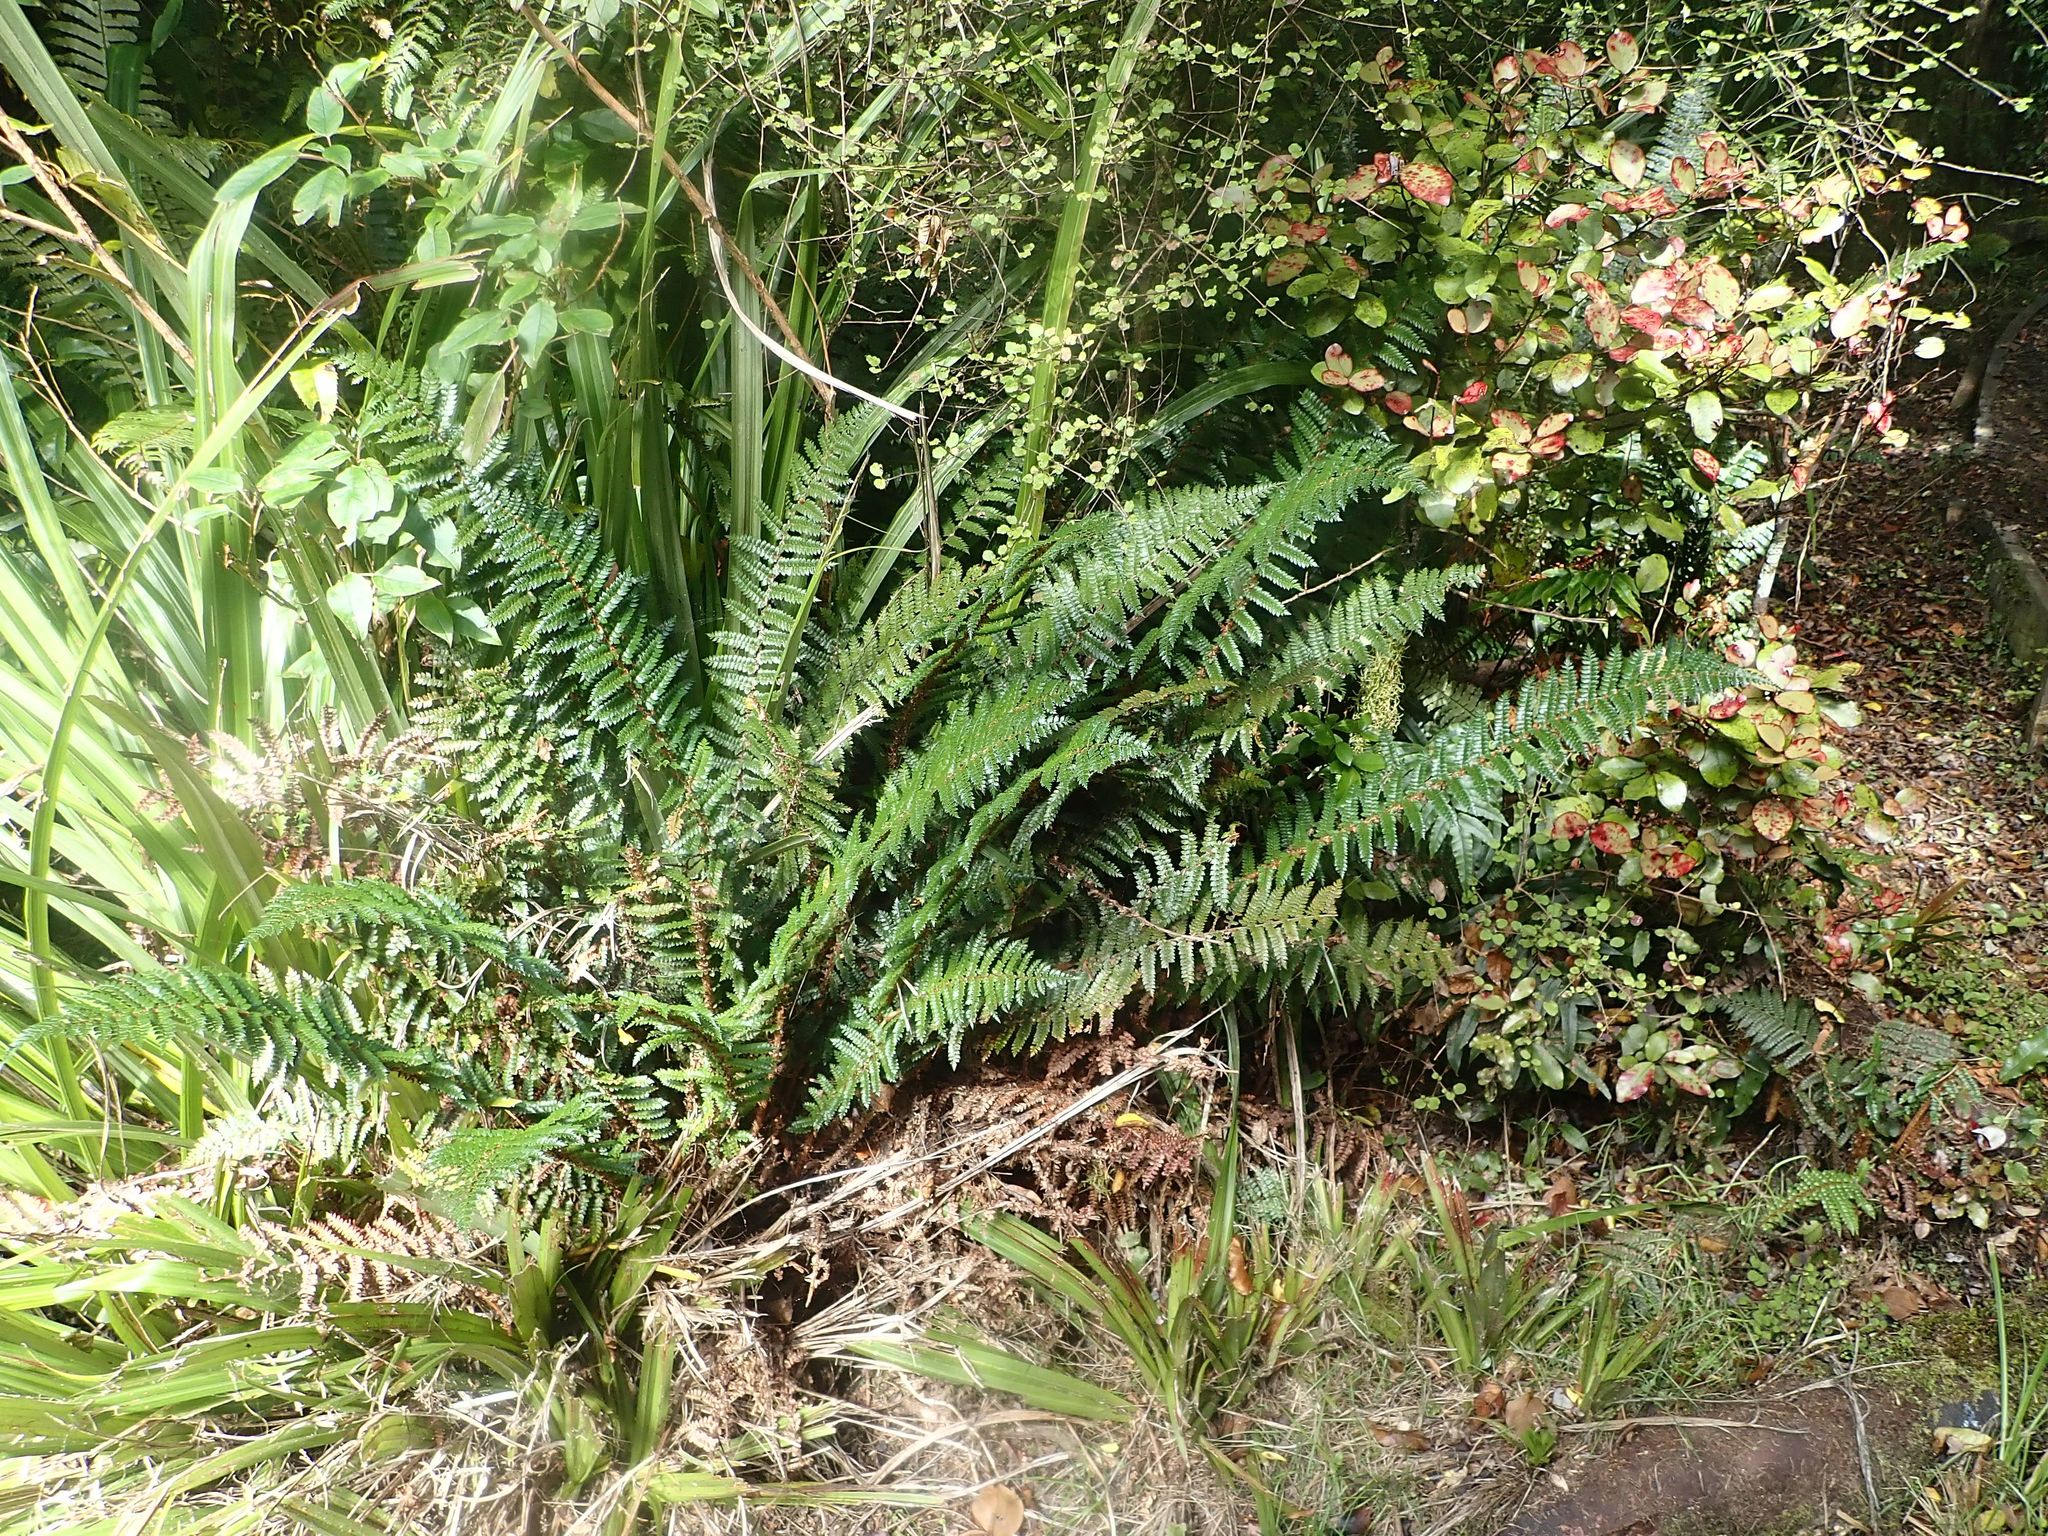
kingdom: Plantae
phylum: Tracheophyta
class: Polypodiopsida
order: Polypodiales
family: Dryopteridaceae
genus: Polystichum
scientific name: Polystichum vestitum
